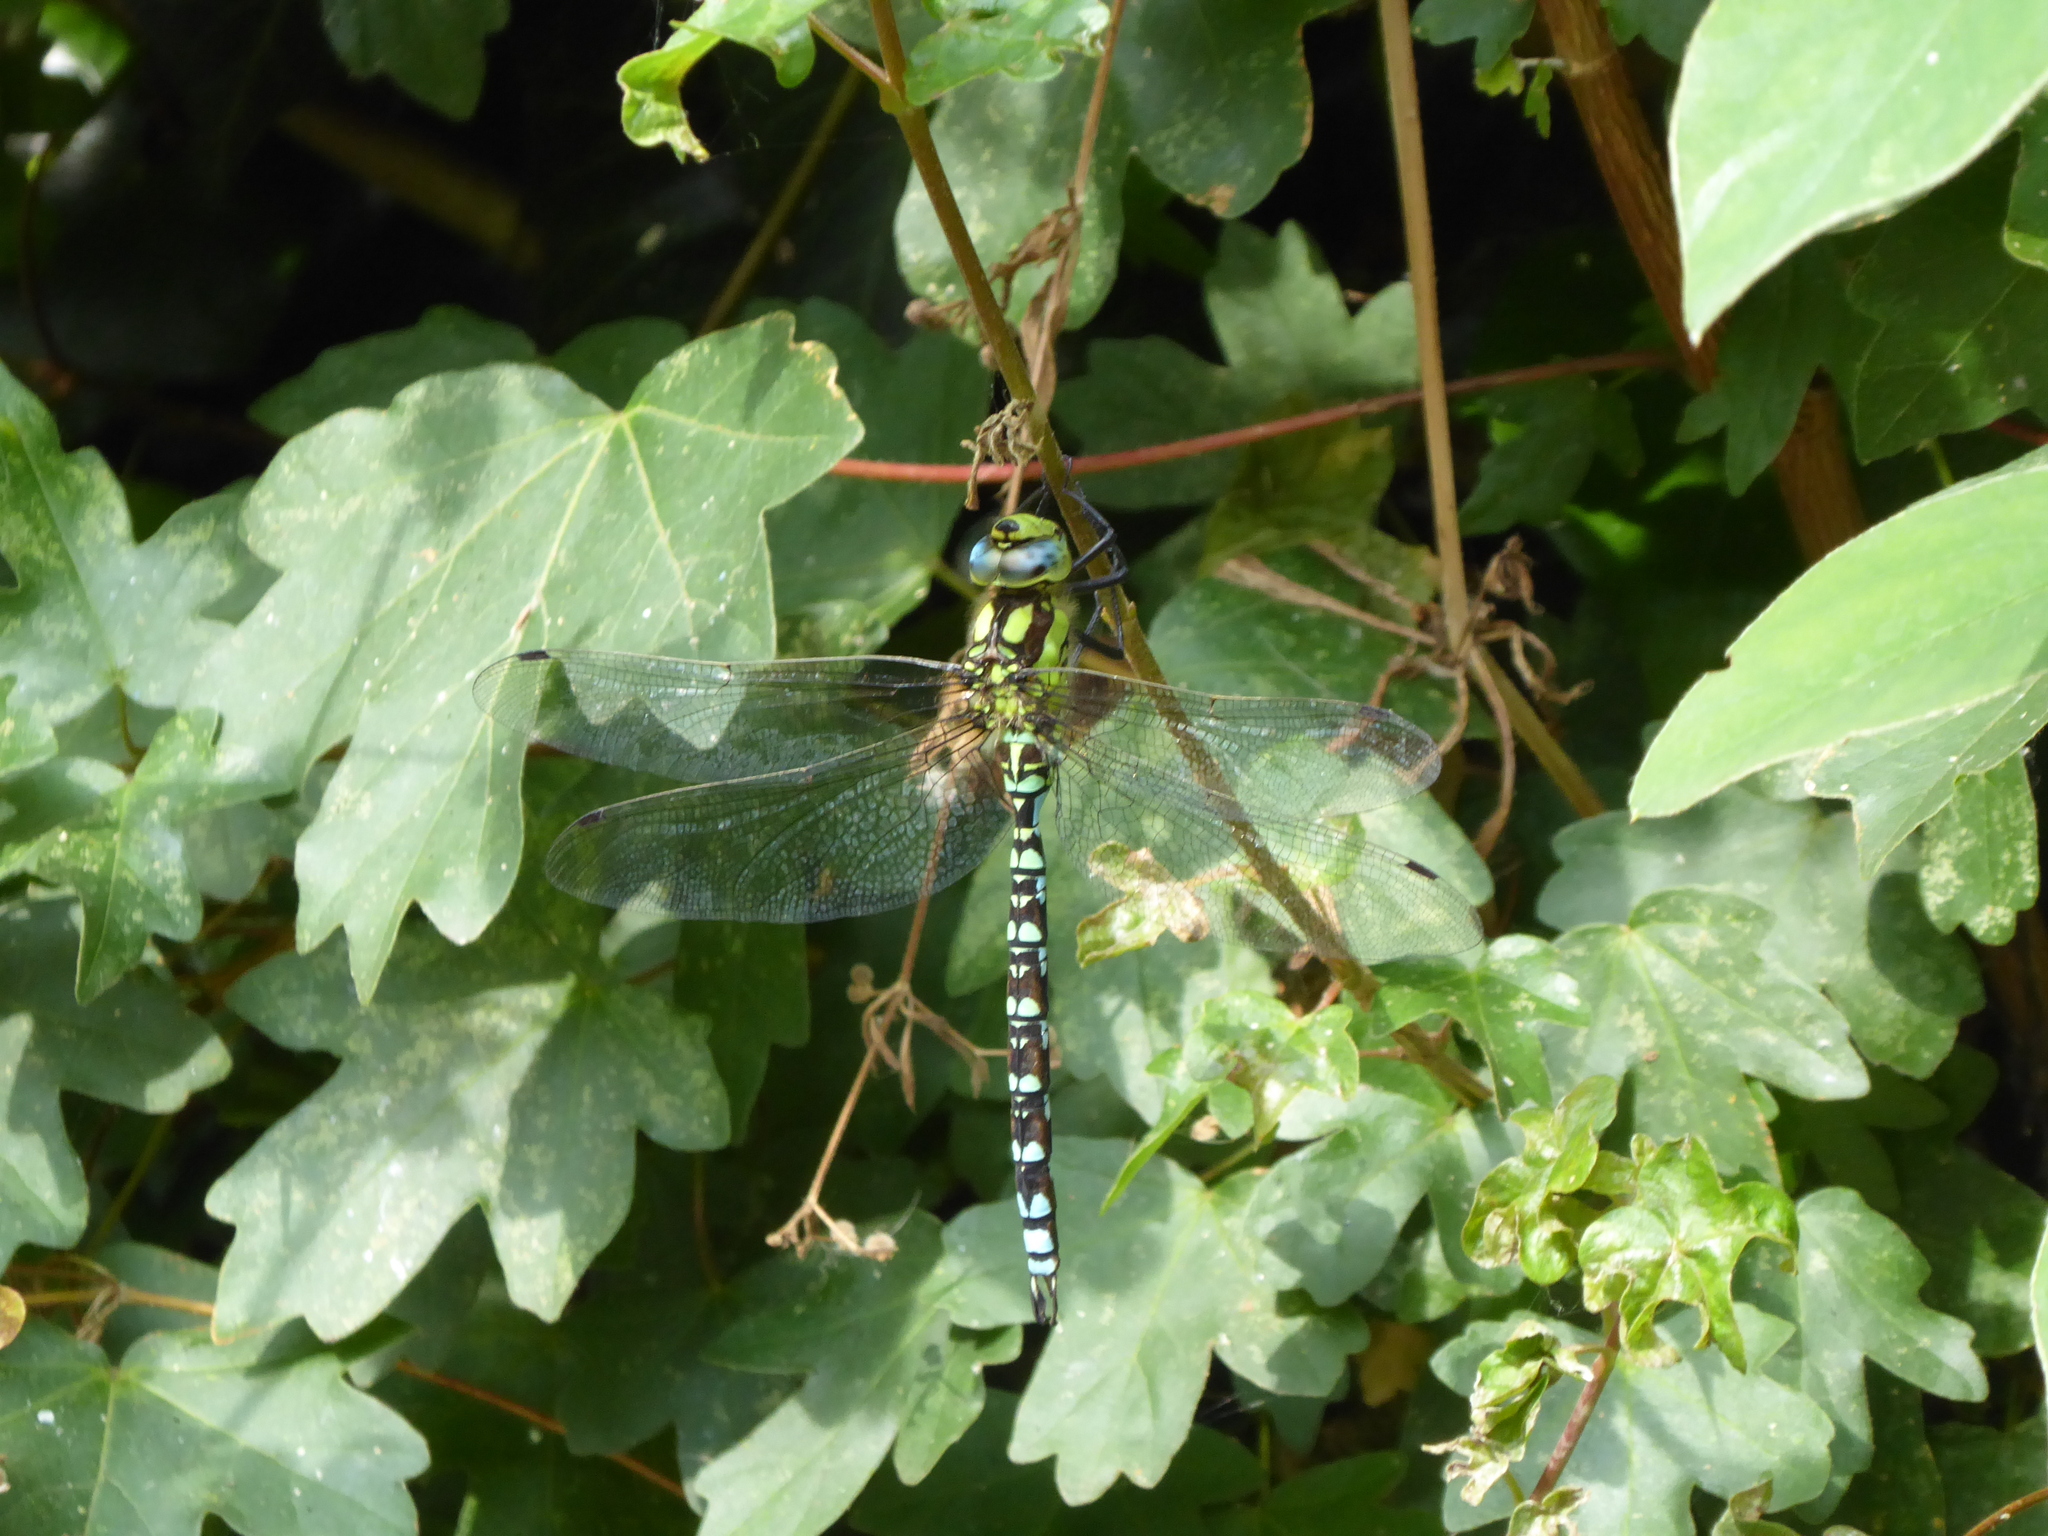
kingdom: Animalia
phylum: Arthropoda
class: Insecta
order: Odonata
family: Aeshnidae
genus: Aeshna
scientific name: Aeshna cyanea
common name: Southern hawker
